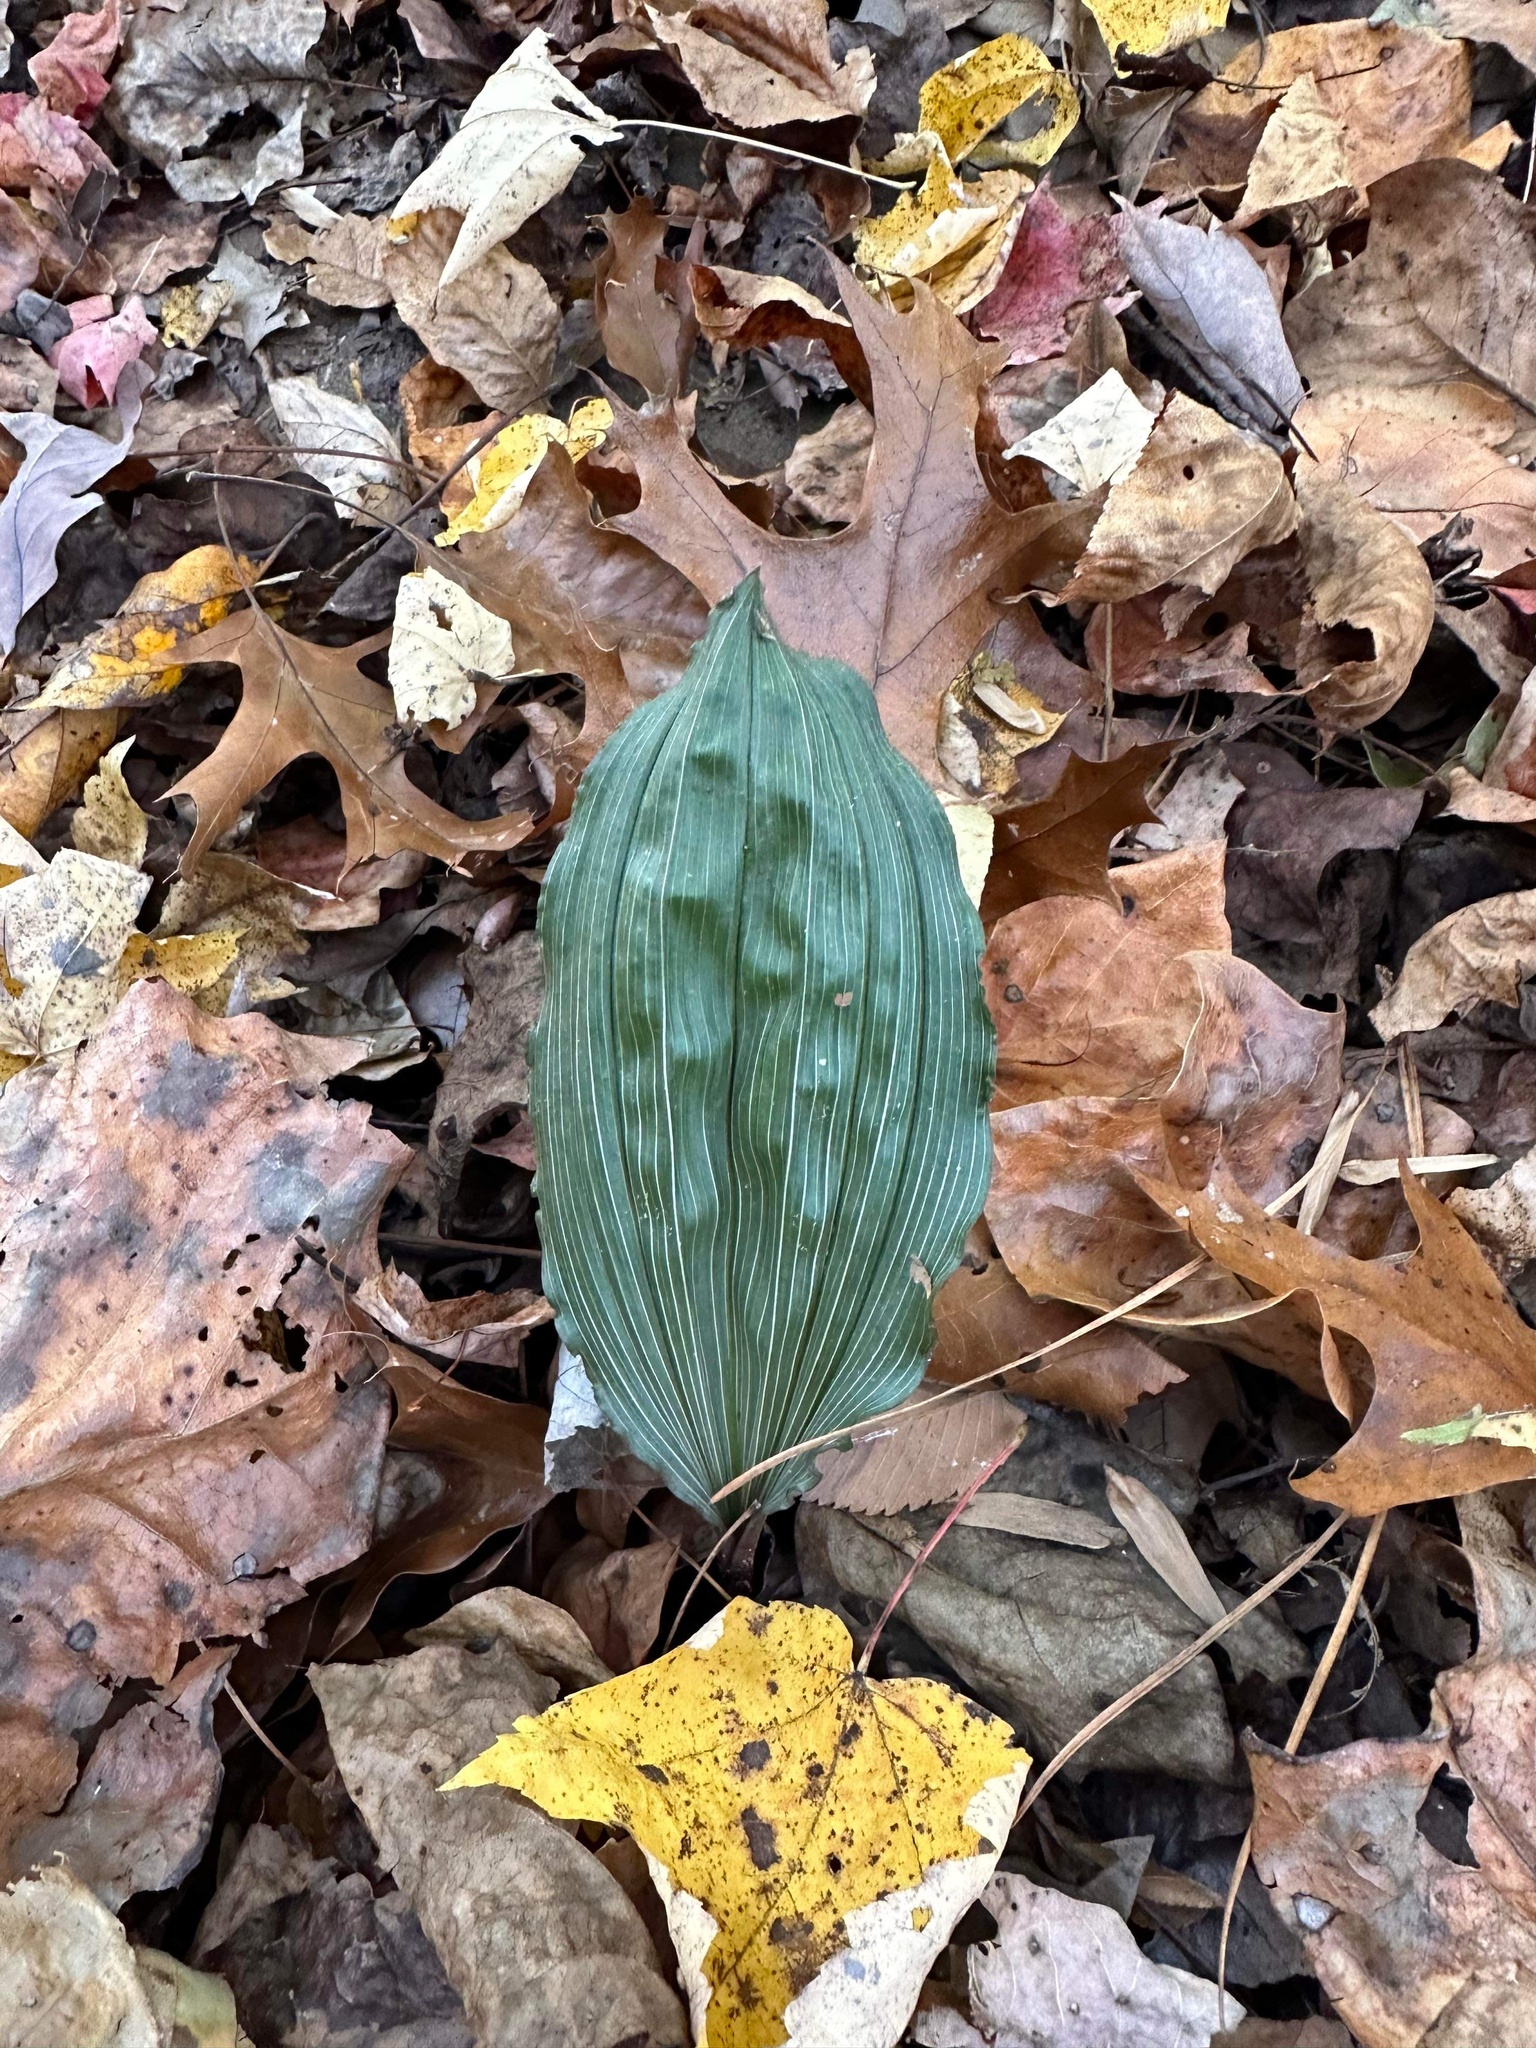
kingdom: Plantae
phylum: Tracheophyta
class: Liliopsida
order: Asparagales
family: Orchidaceae
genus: Aplectrum
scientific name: Aplectrum hyemale
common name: Adam-and-eve
